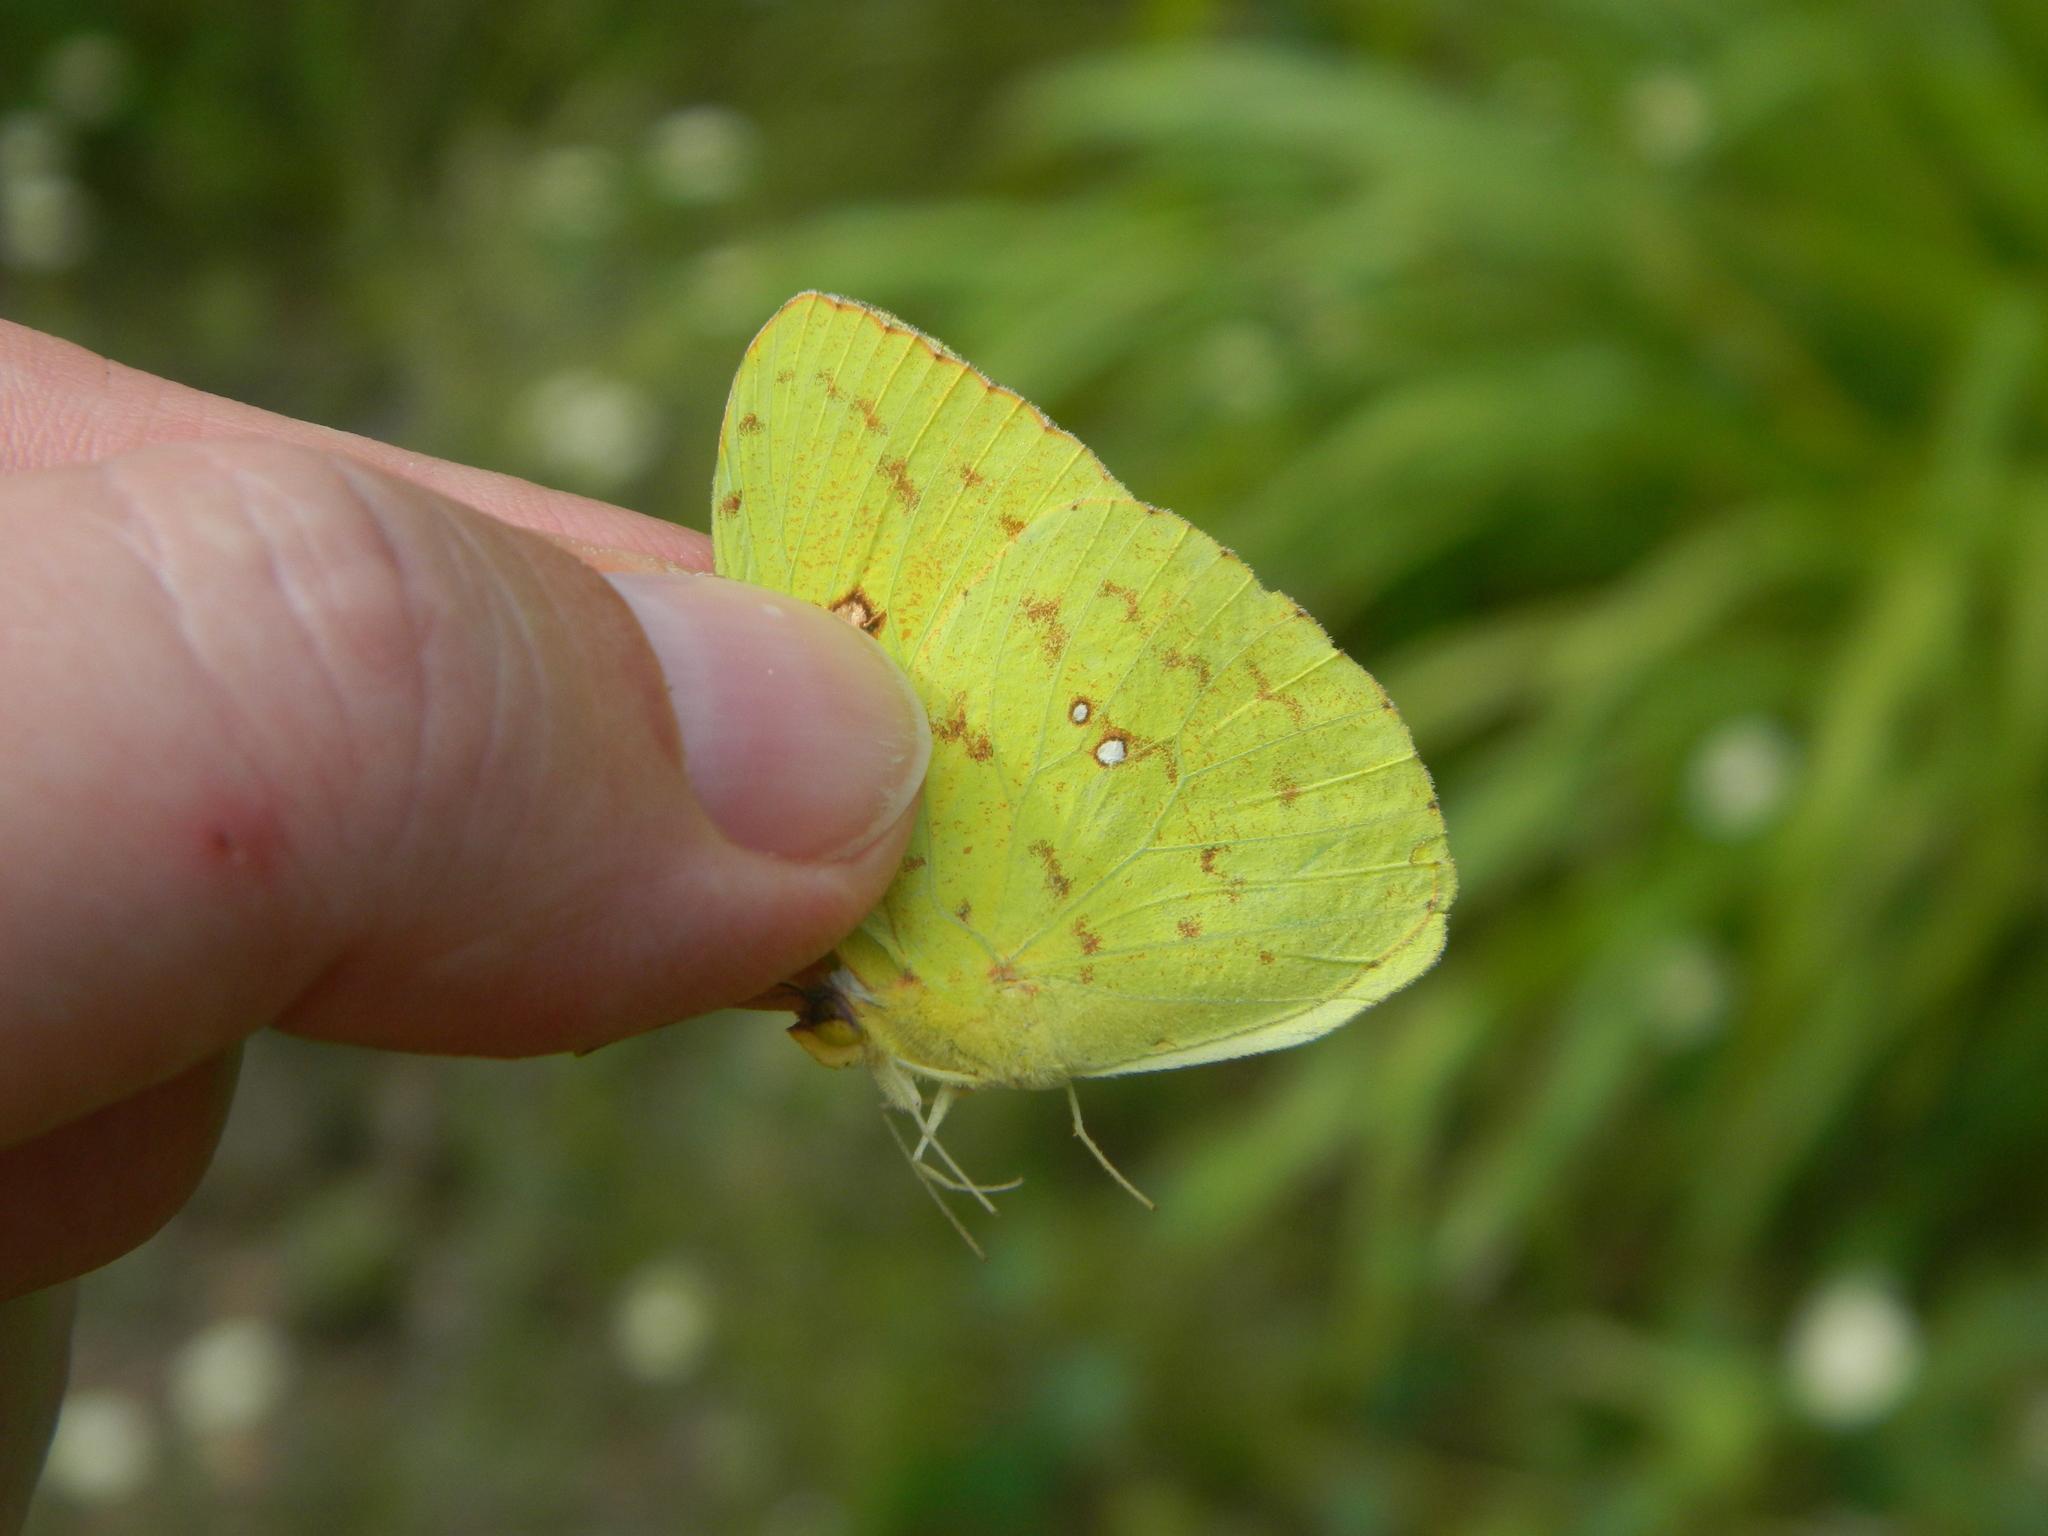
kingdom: Animalia
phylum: Arthropoda
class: Insecta
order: Lepidoptera
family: Pieridae
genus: Phoebis
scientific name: Phoebis sennae
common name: Cloudless sulphur
